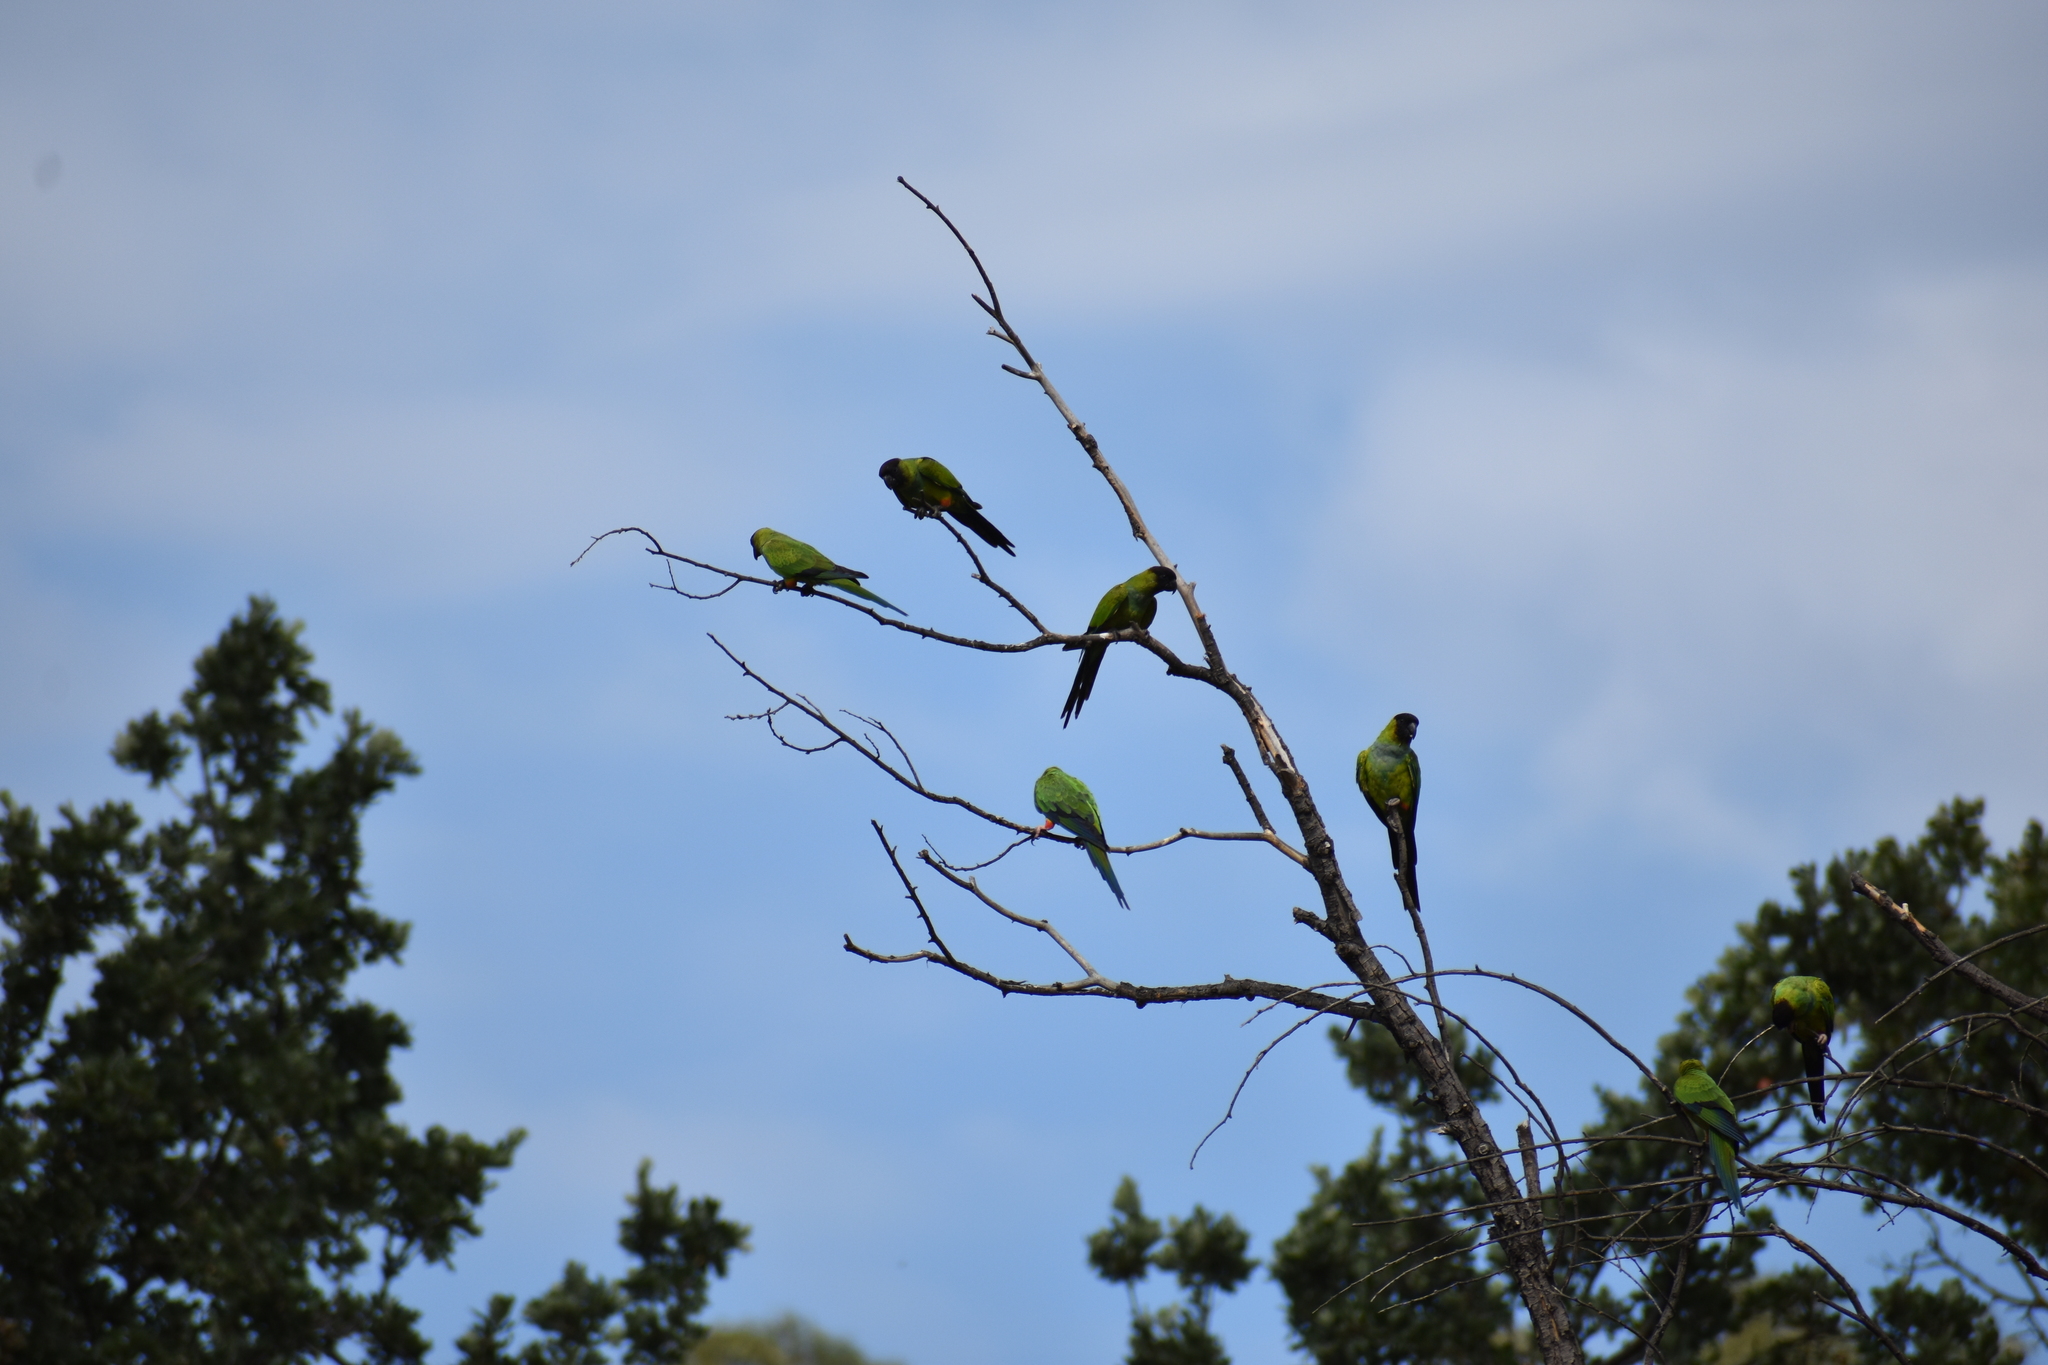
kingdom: Animalia
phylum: Chordata
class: Aves
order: Psittaciformes
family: Psittacidae
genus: Nandayus
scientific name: Nandayus nenday
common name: Nanday parakeet
